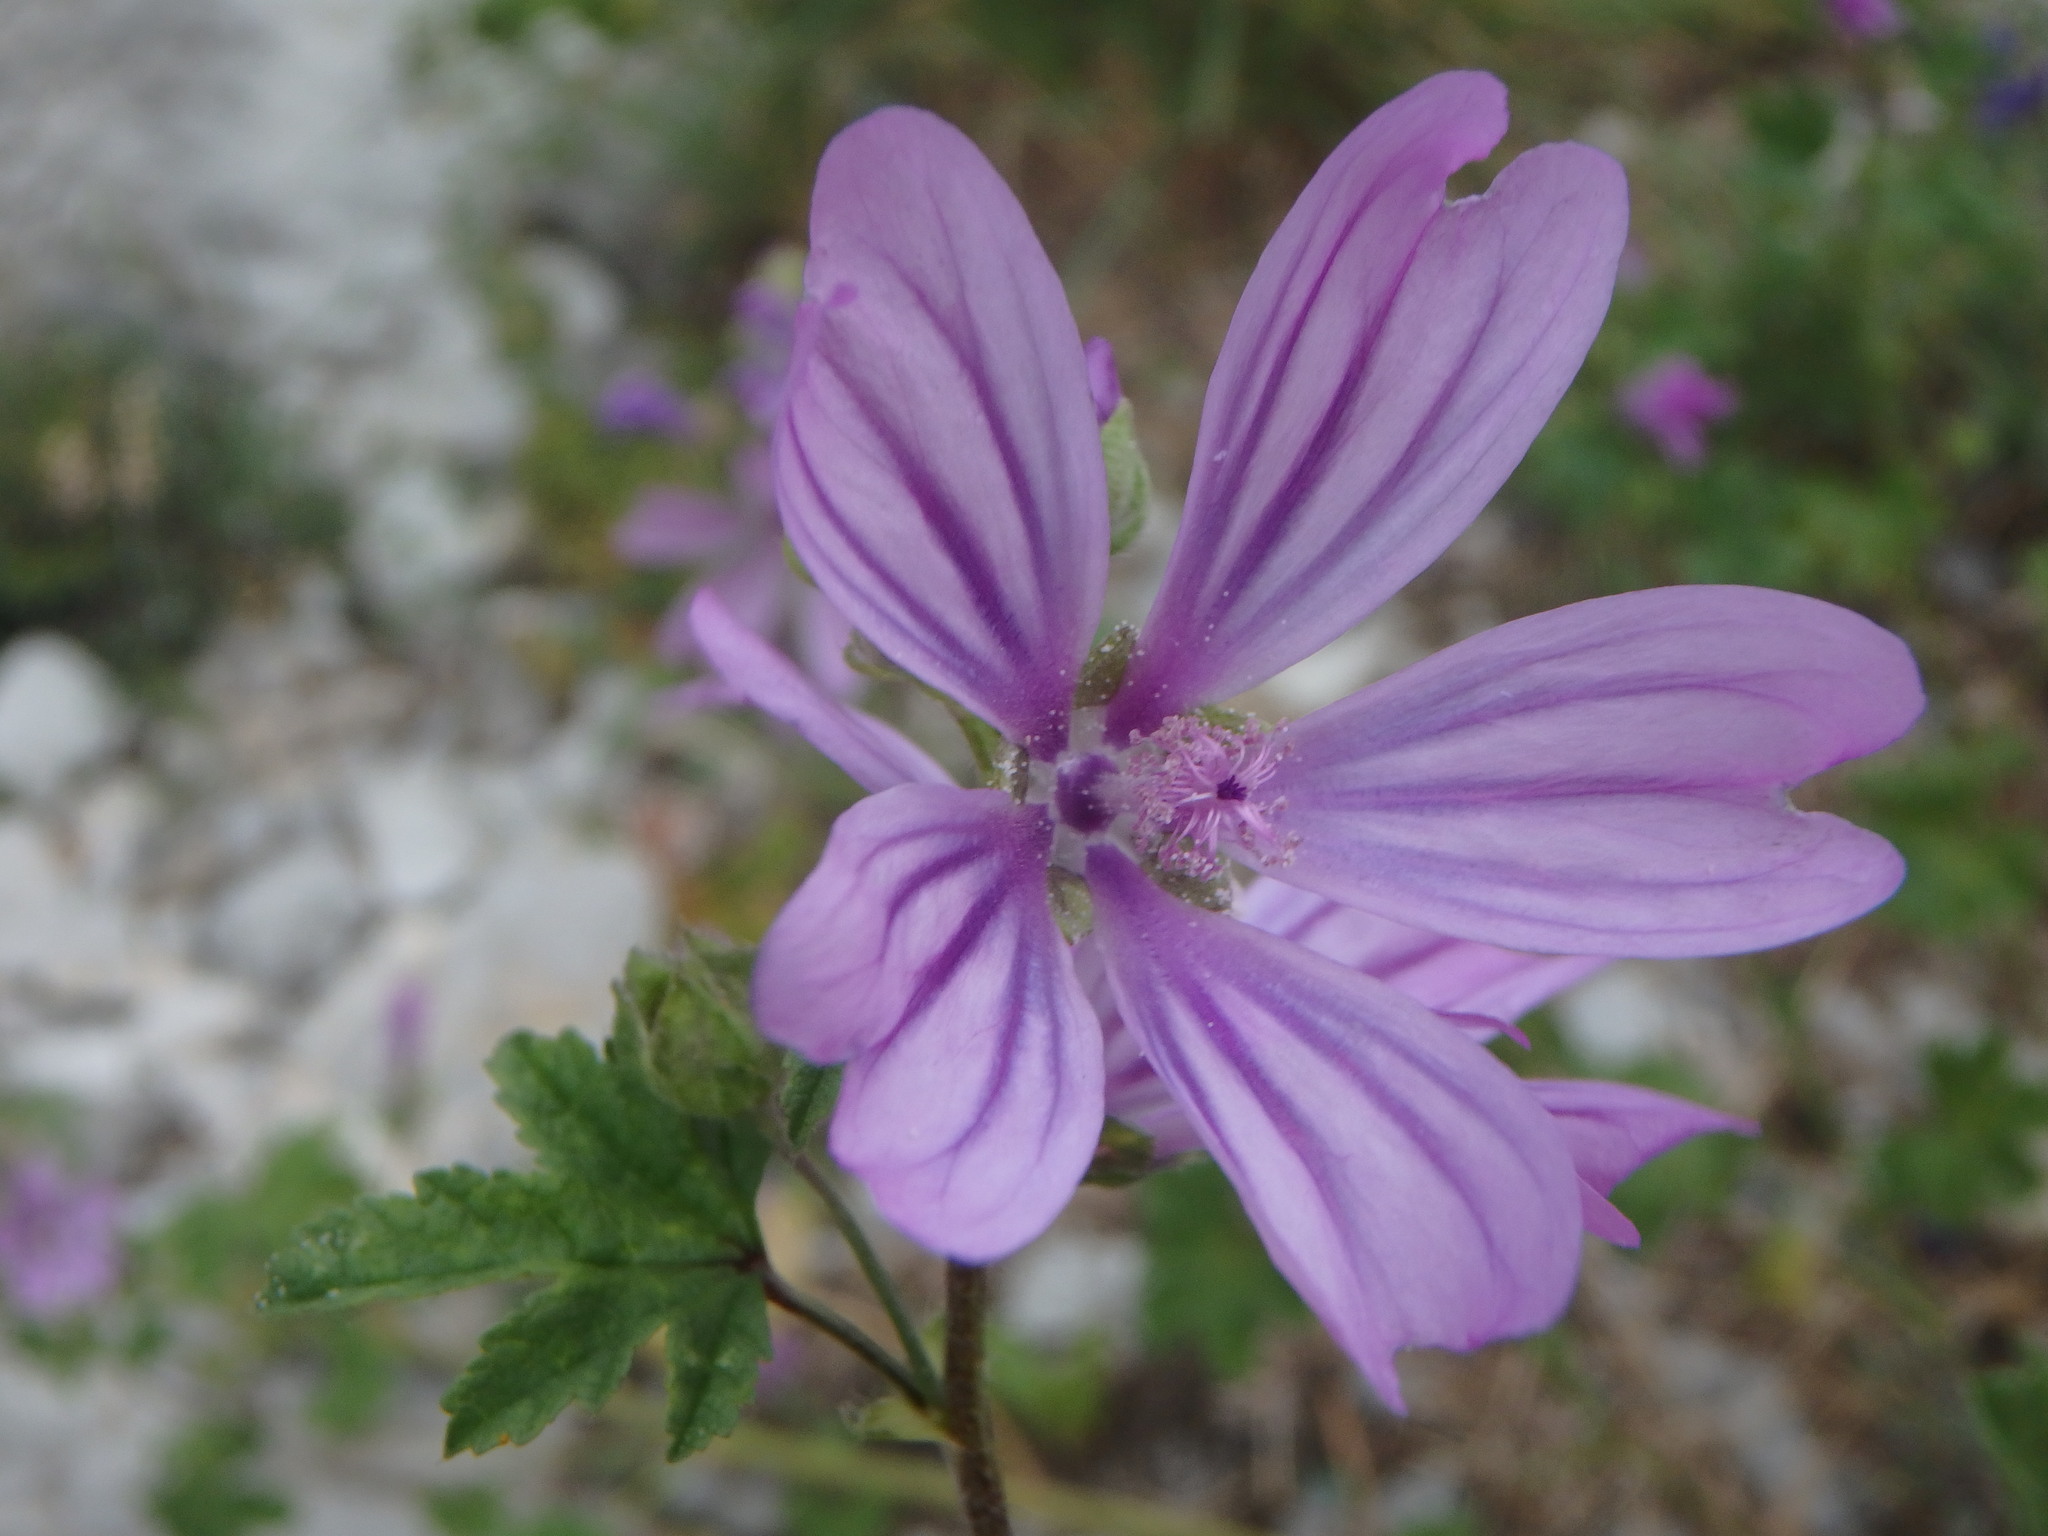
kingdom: Plantae
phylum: Tracheophyta
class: Magnoliopsida
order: Malvales
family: Malvaceae
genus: Malva
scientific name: Malva sylvestris
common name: Common mallow
